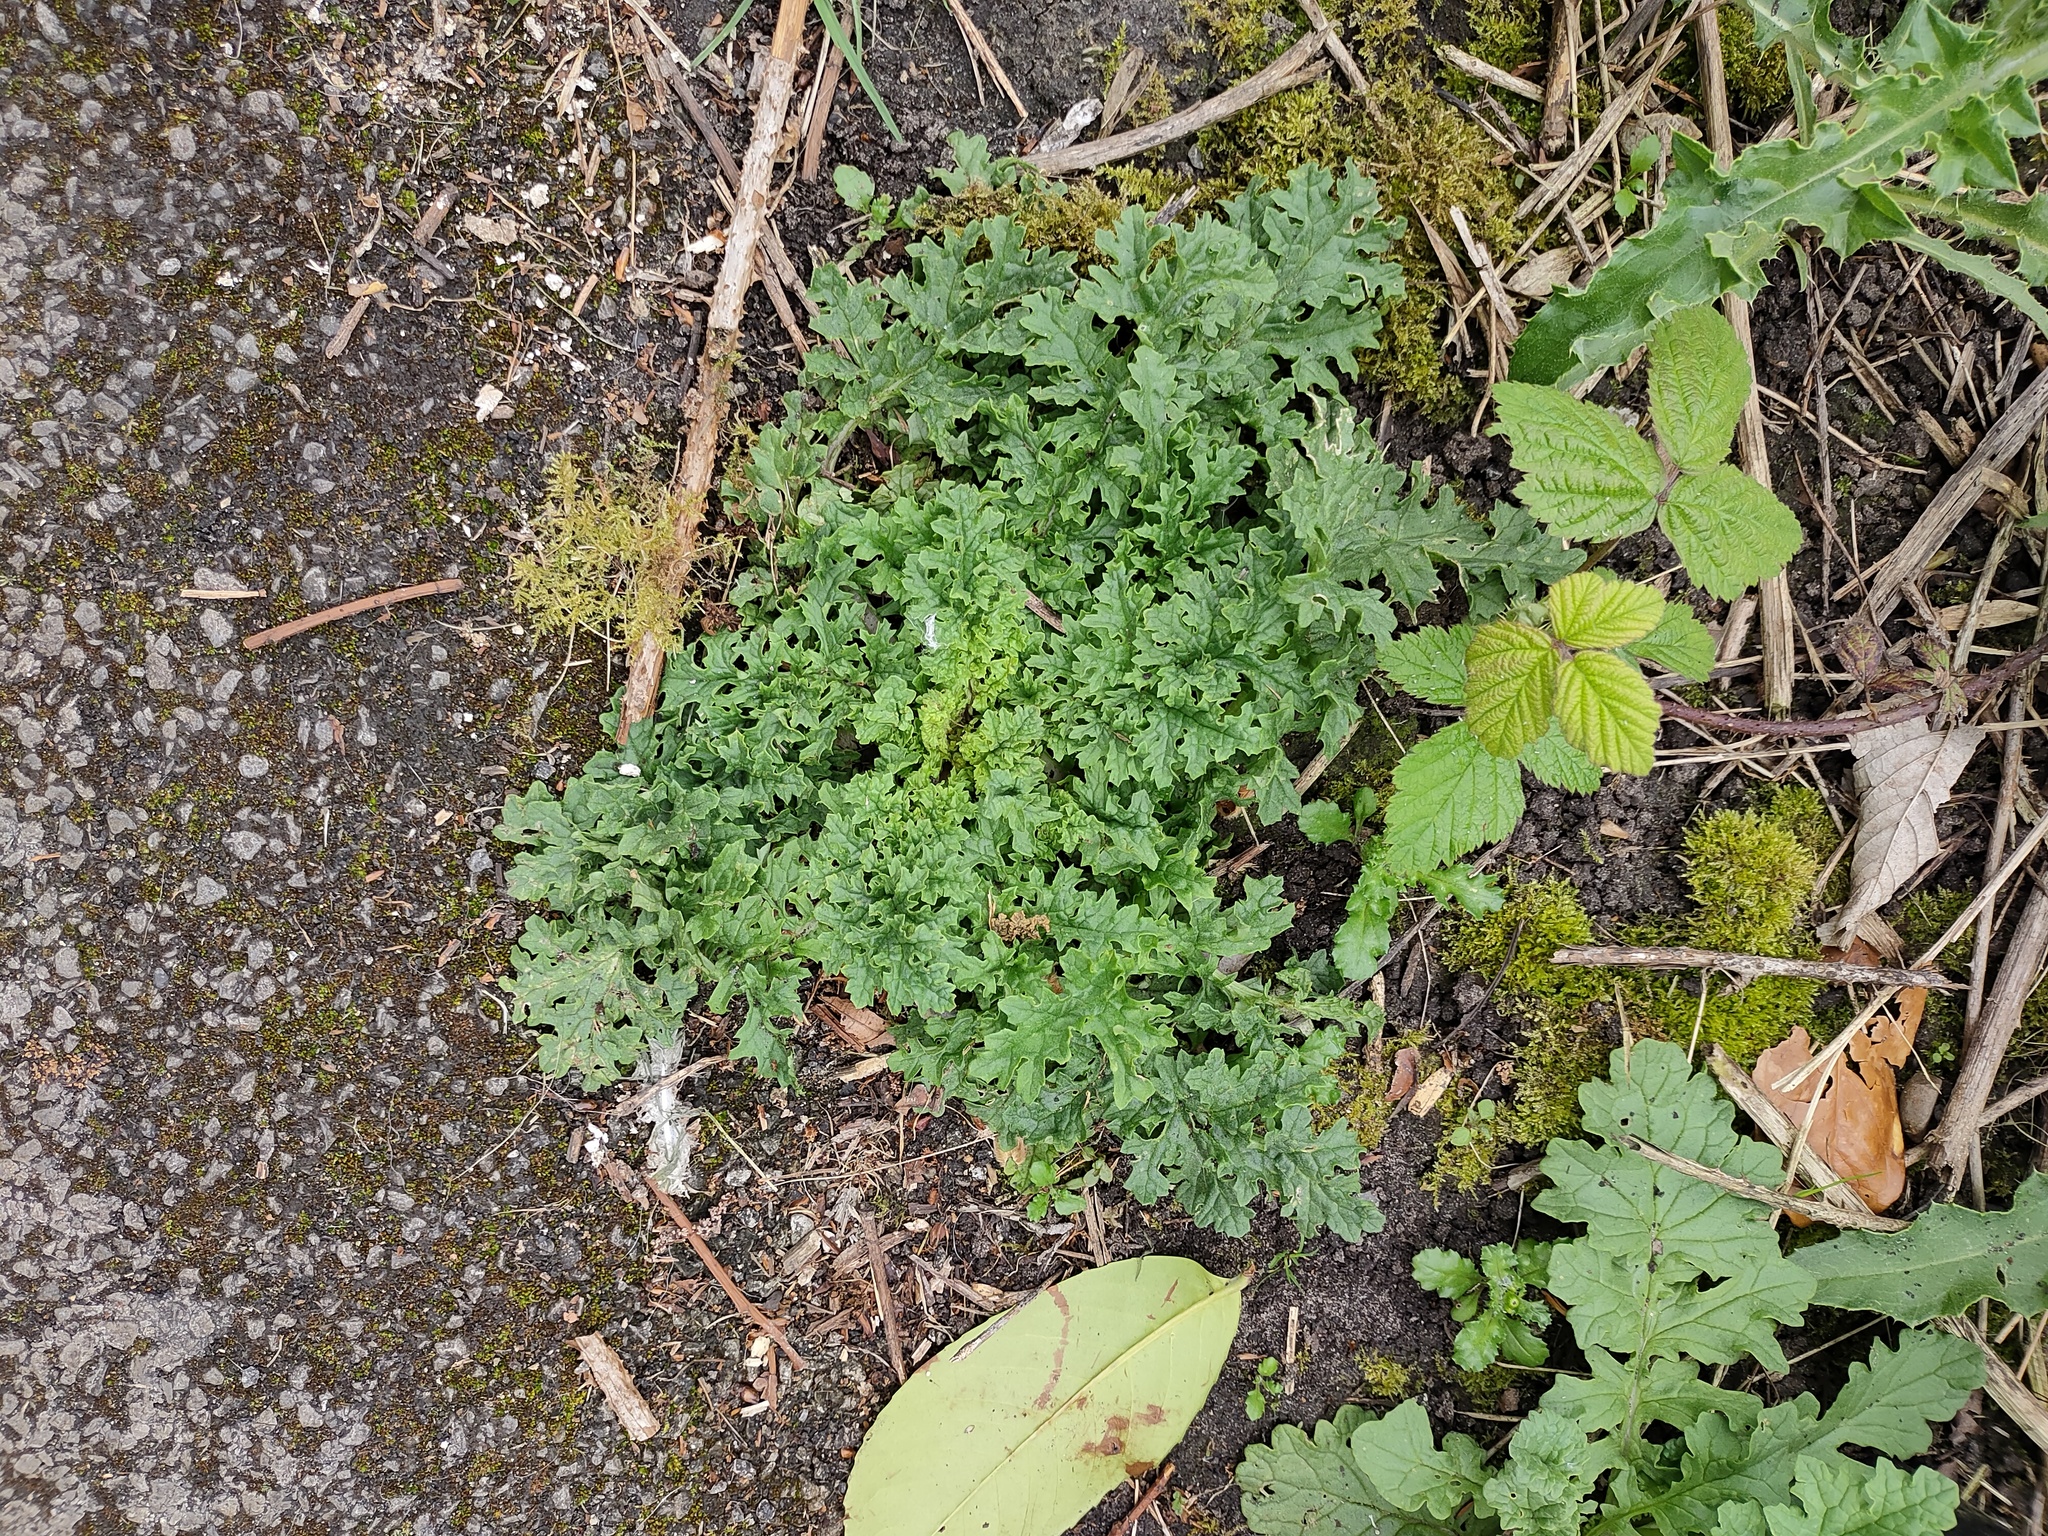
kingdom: Plantae
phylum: Tracheophyta
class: Magnoliopsida
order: Asterales
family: Asteraceae
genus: Jacobaea
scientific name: Jacobaea vulgaris
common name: Stinking willie
